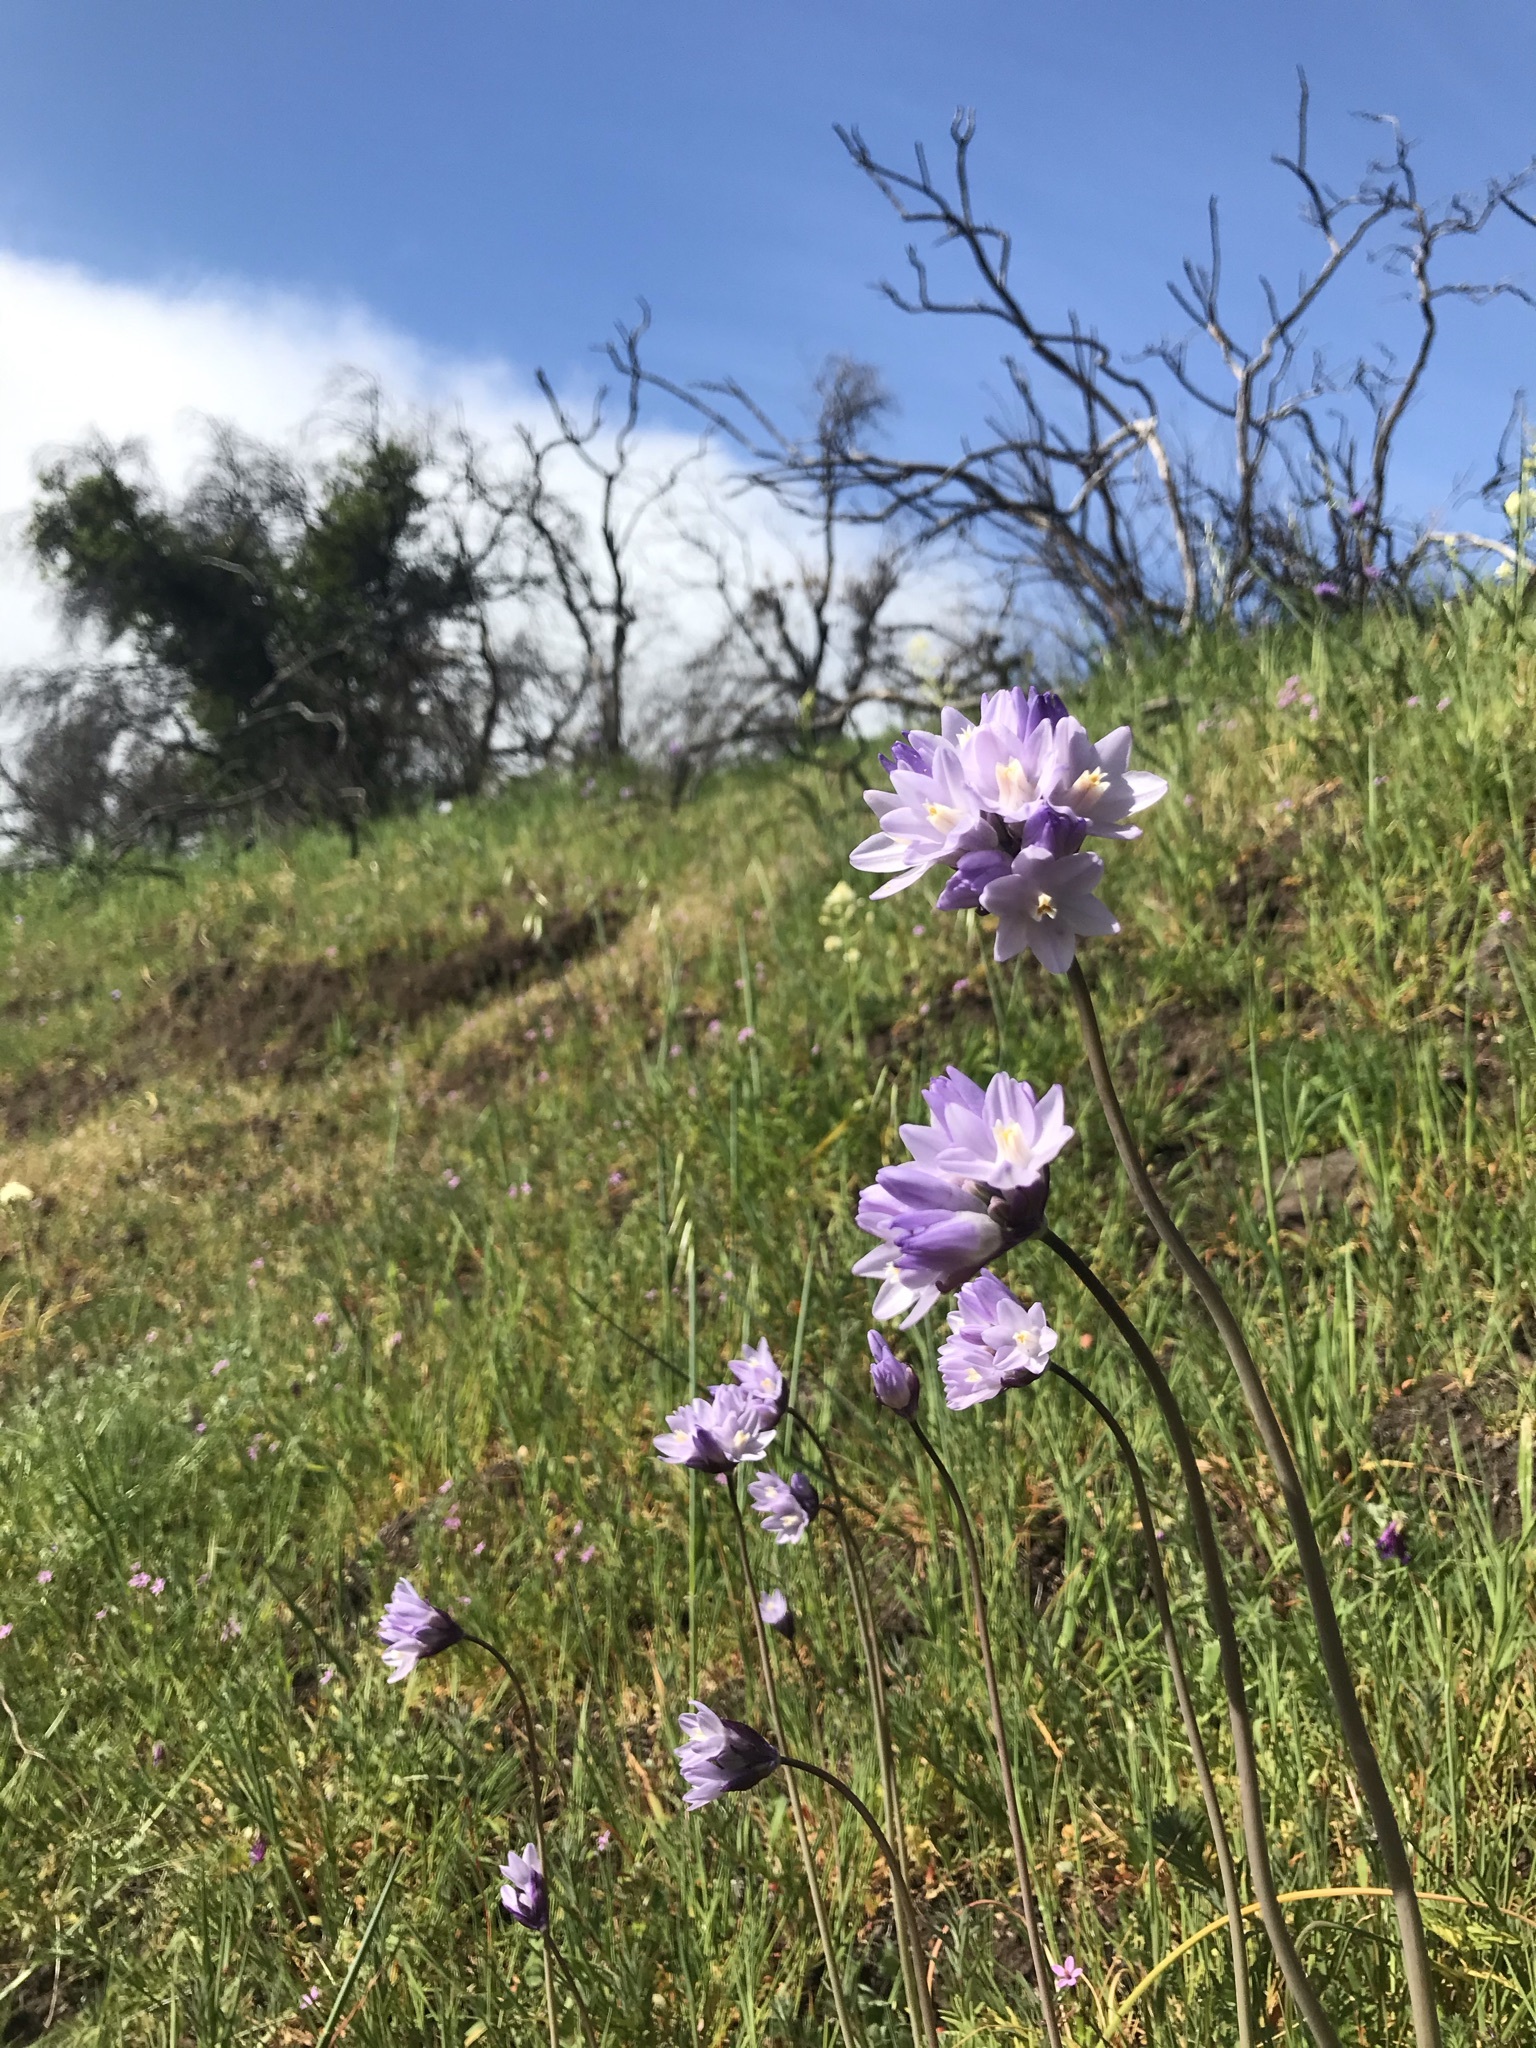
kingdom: Plantae
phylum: Tracheophyta
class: Liliopsida
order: Asparagales
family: Asparagaceae
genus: Dipterostemon
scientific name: Dipterostemon capitatus
